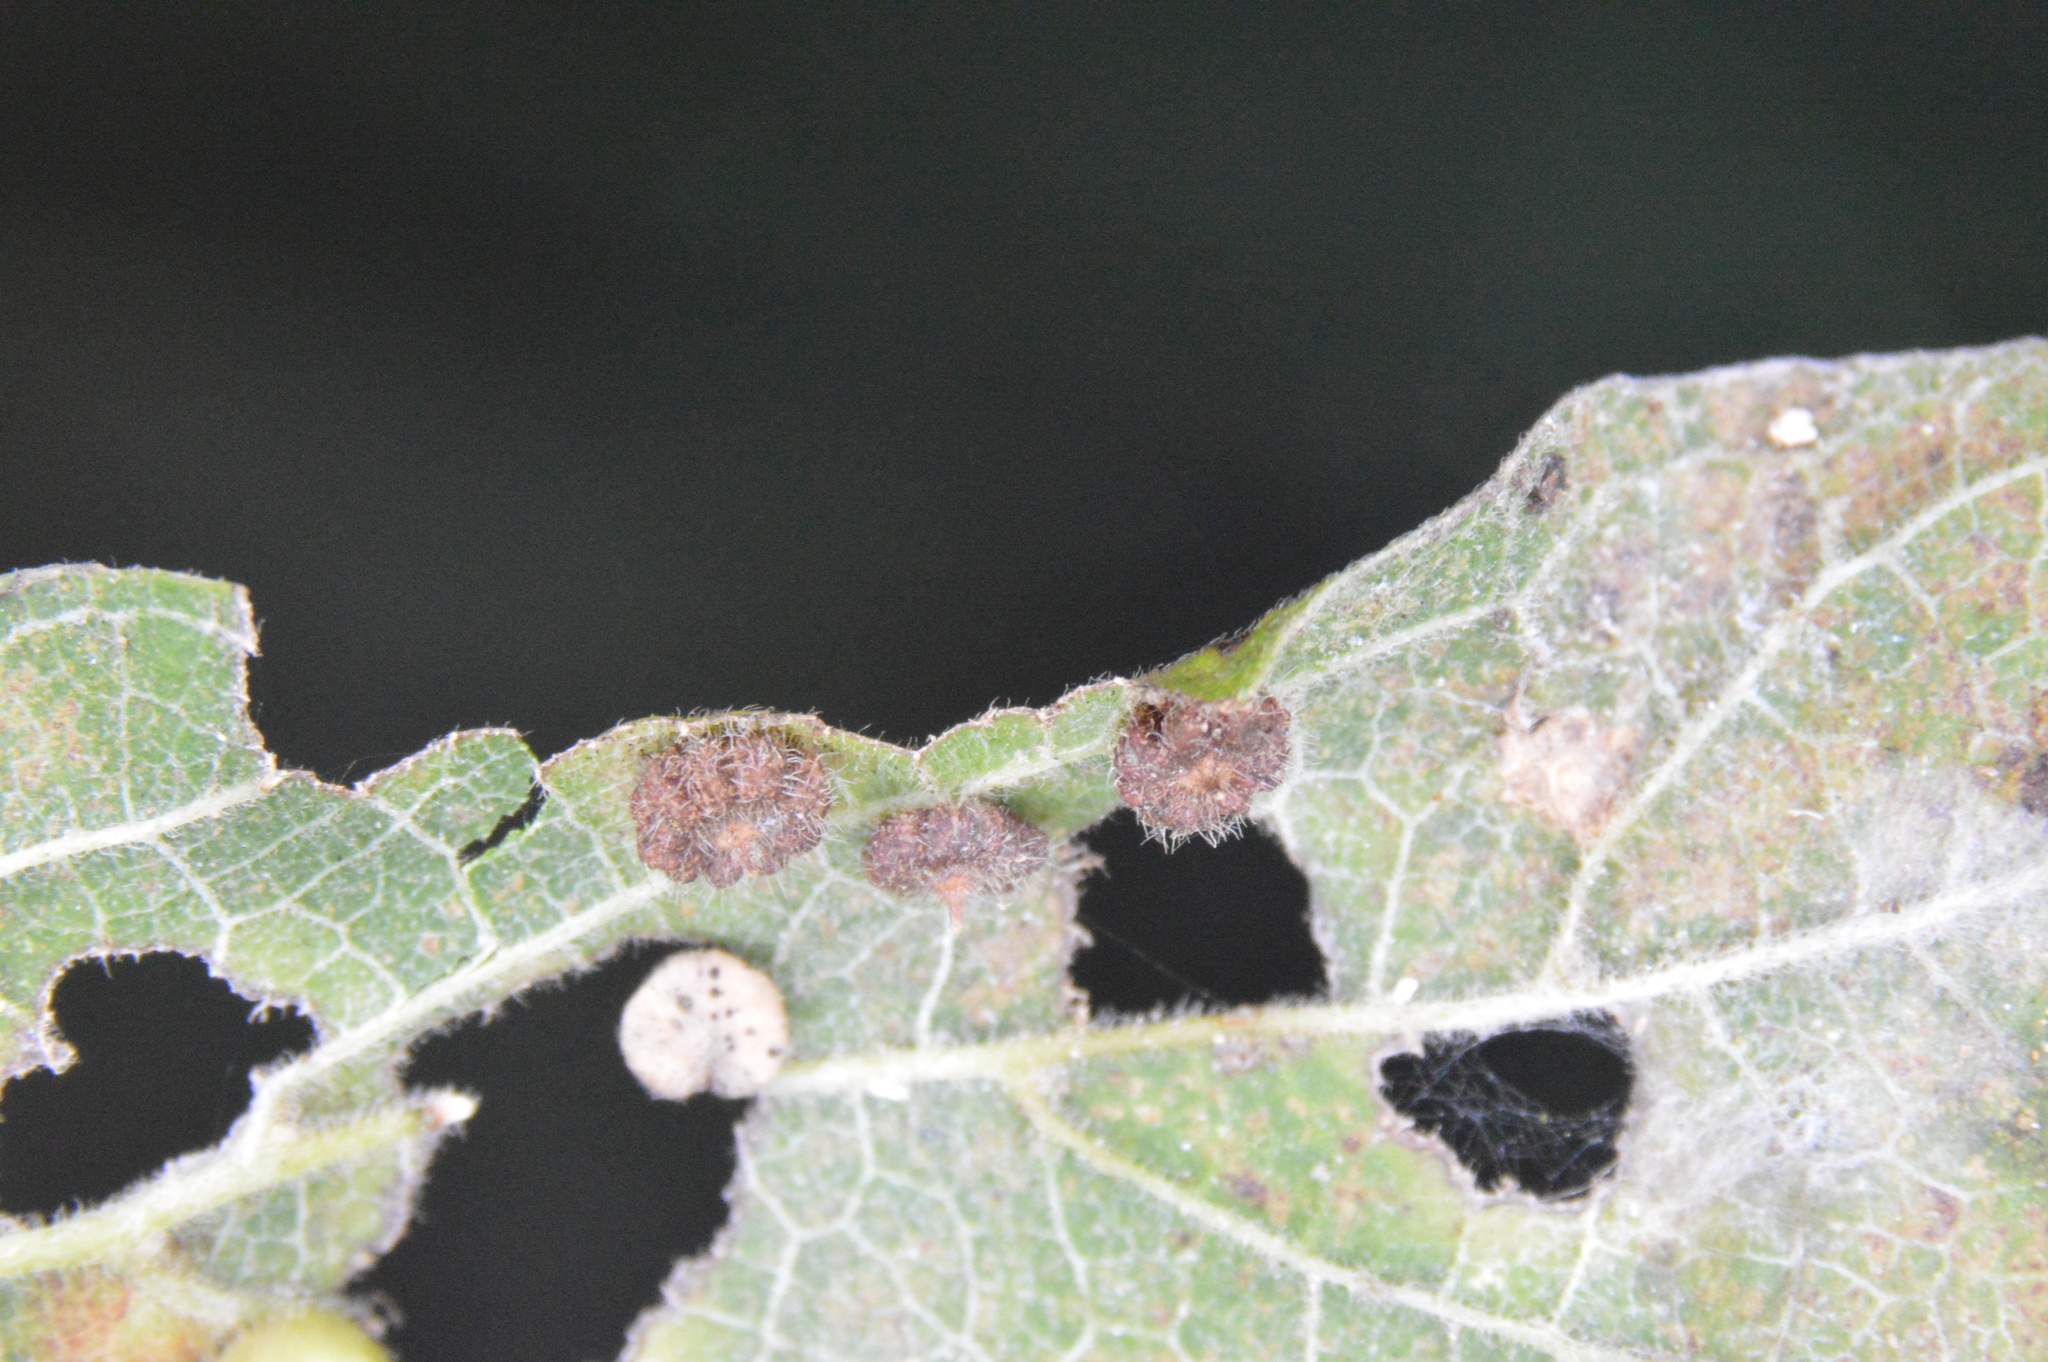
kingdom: Animalia
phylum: Arthropoda
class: Insecta
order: Diptera
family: Cecidomyiidae
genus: Celticecis
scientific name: Celticecis capsularis
